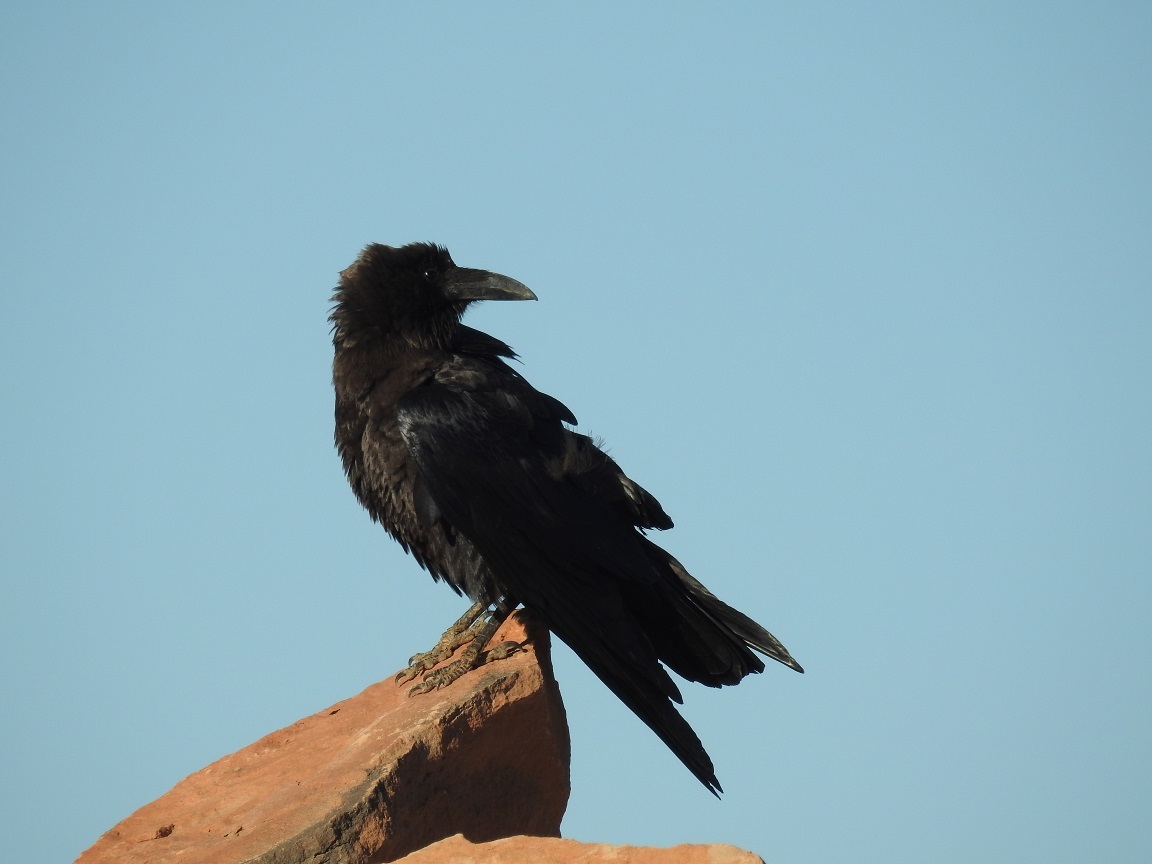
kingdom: Animalia
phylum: Chordata
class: Aves
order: Passeriformes
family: Corvidae
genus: Corvus
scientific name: Corvus ruficollis
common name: Brown-necked raven
